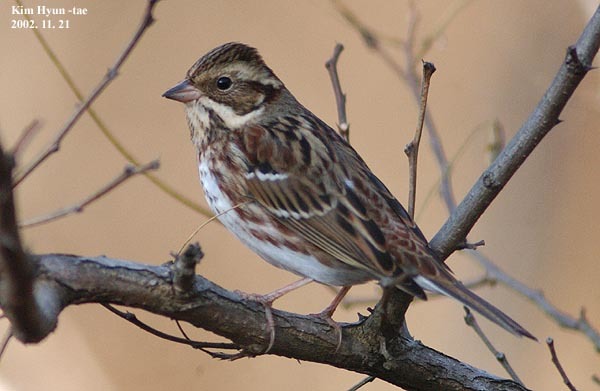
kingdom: Animalia
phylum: Chordata
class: Aves
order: Passeriformes
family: Emberizidae
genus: Emberiza
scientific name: Emberiza rustica
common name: Rustic bunting
